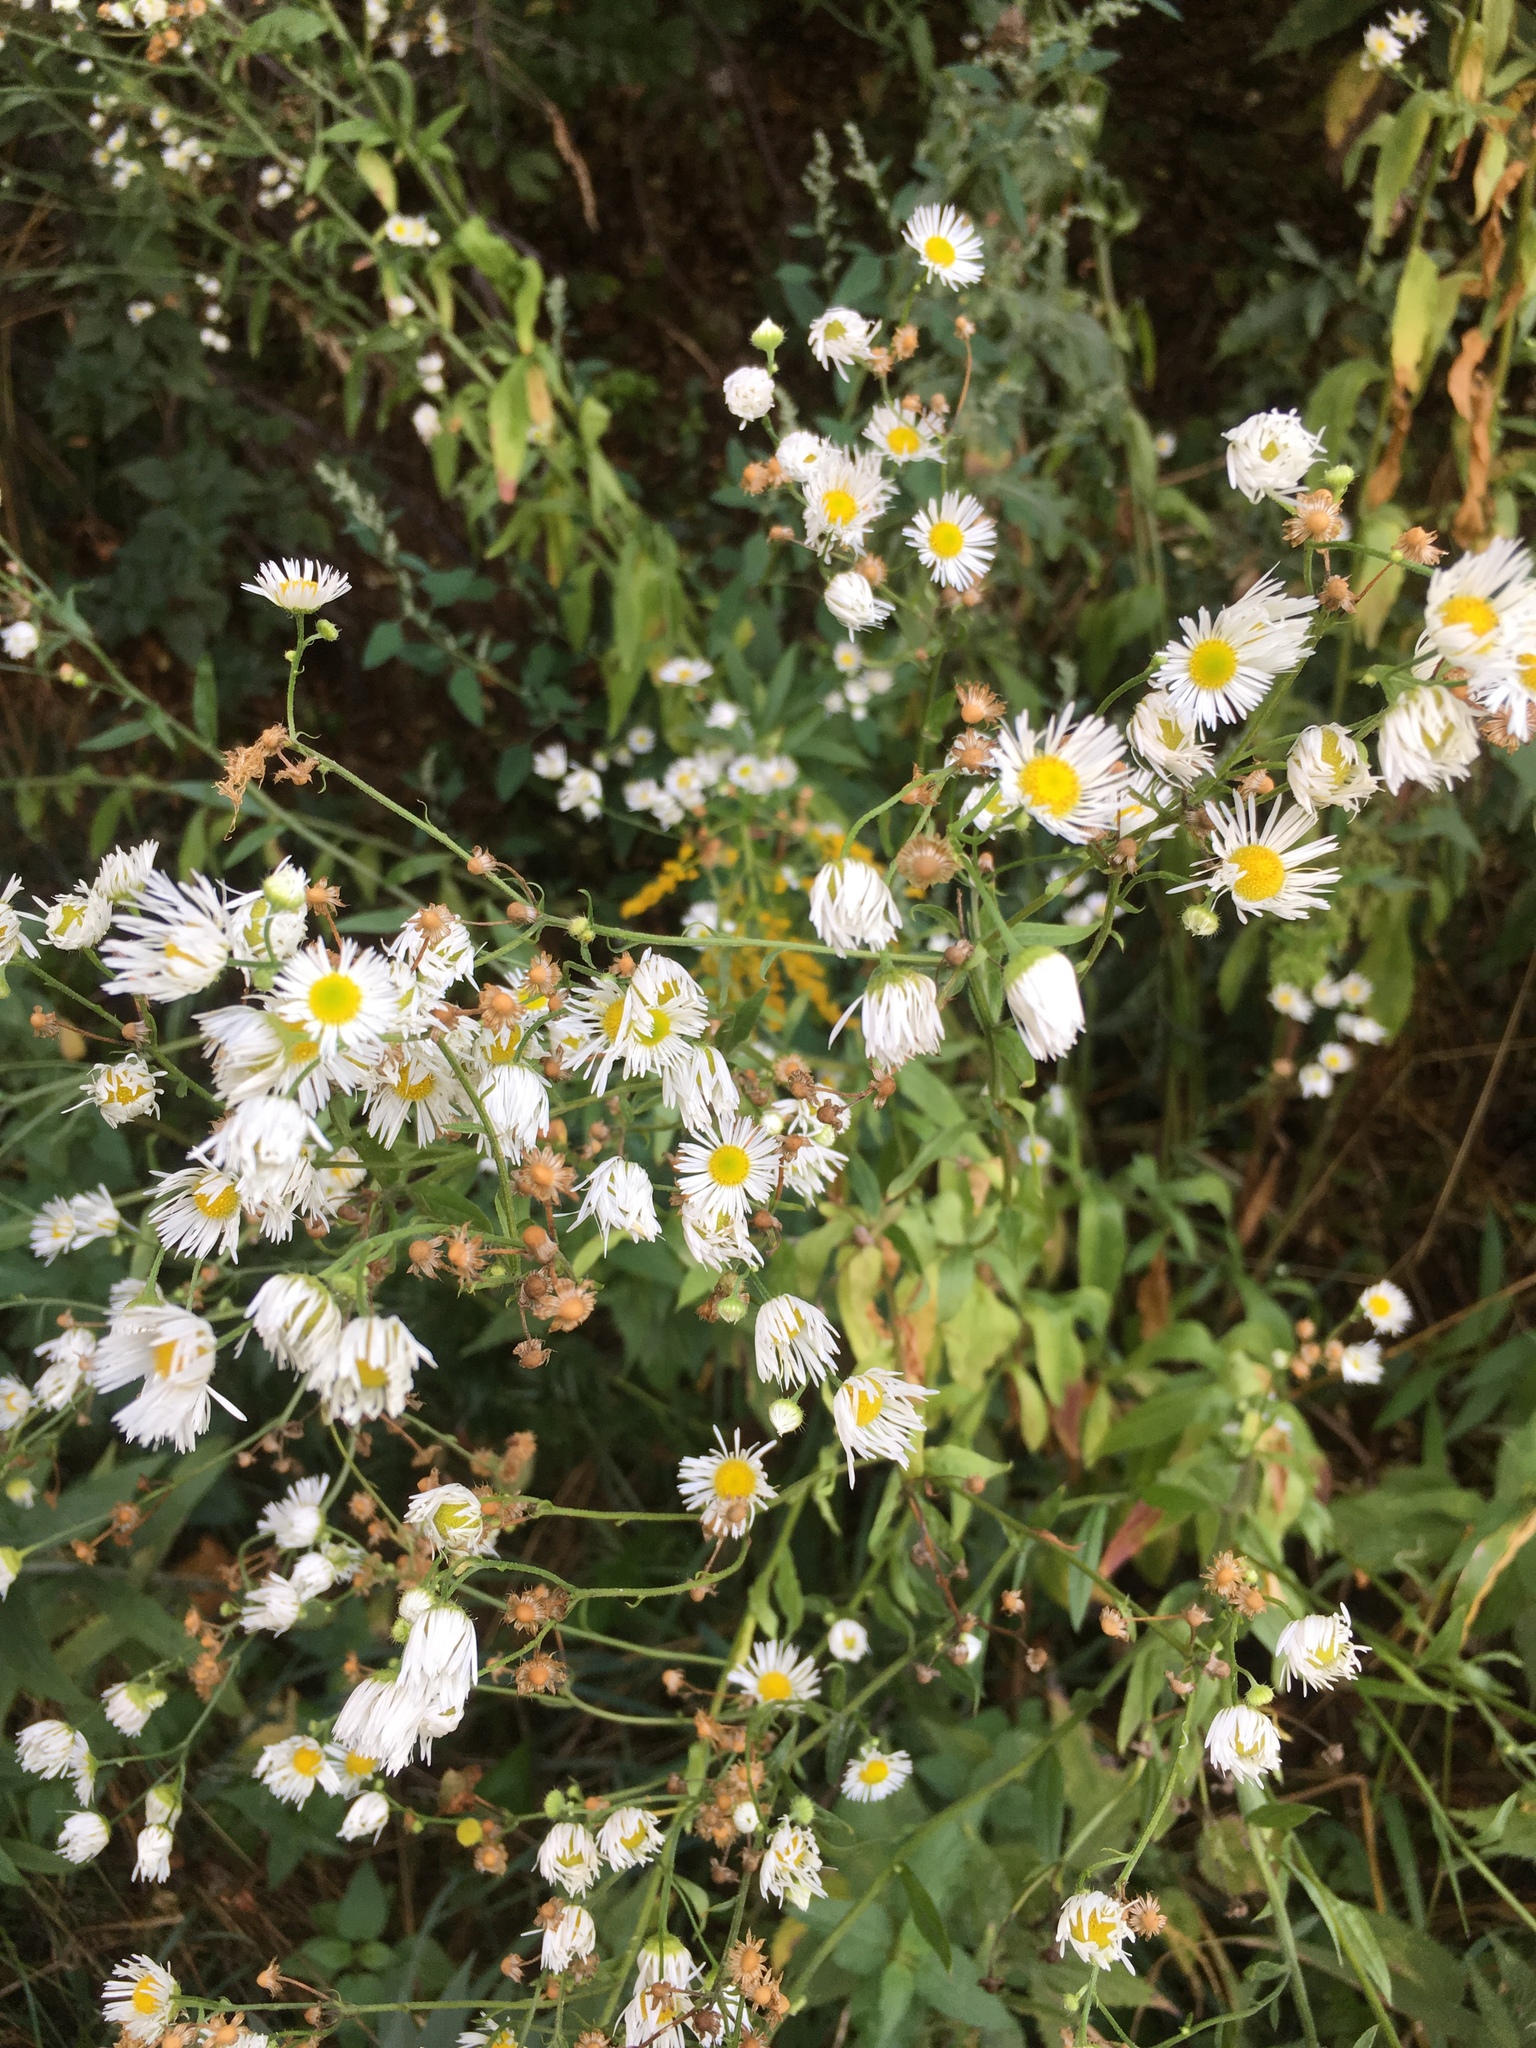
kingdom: Plantae
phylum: Tracheophyta
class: Magnoliopsida
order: Asterales
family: Asteraceae
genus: Erigeron
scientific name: Erigeron annuus
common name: Tall fleabane
